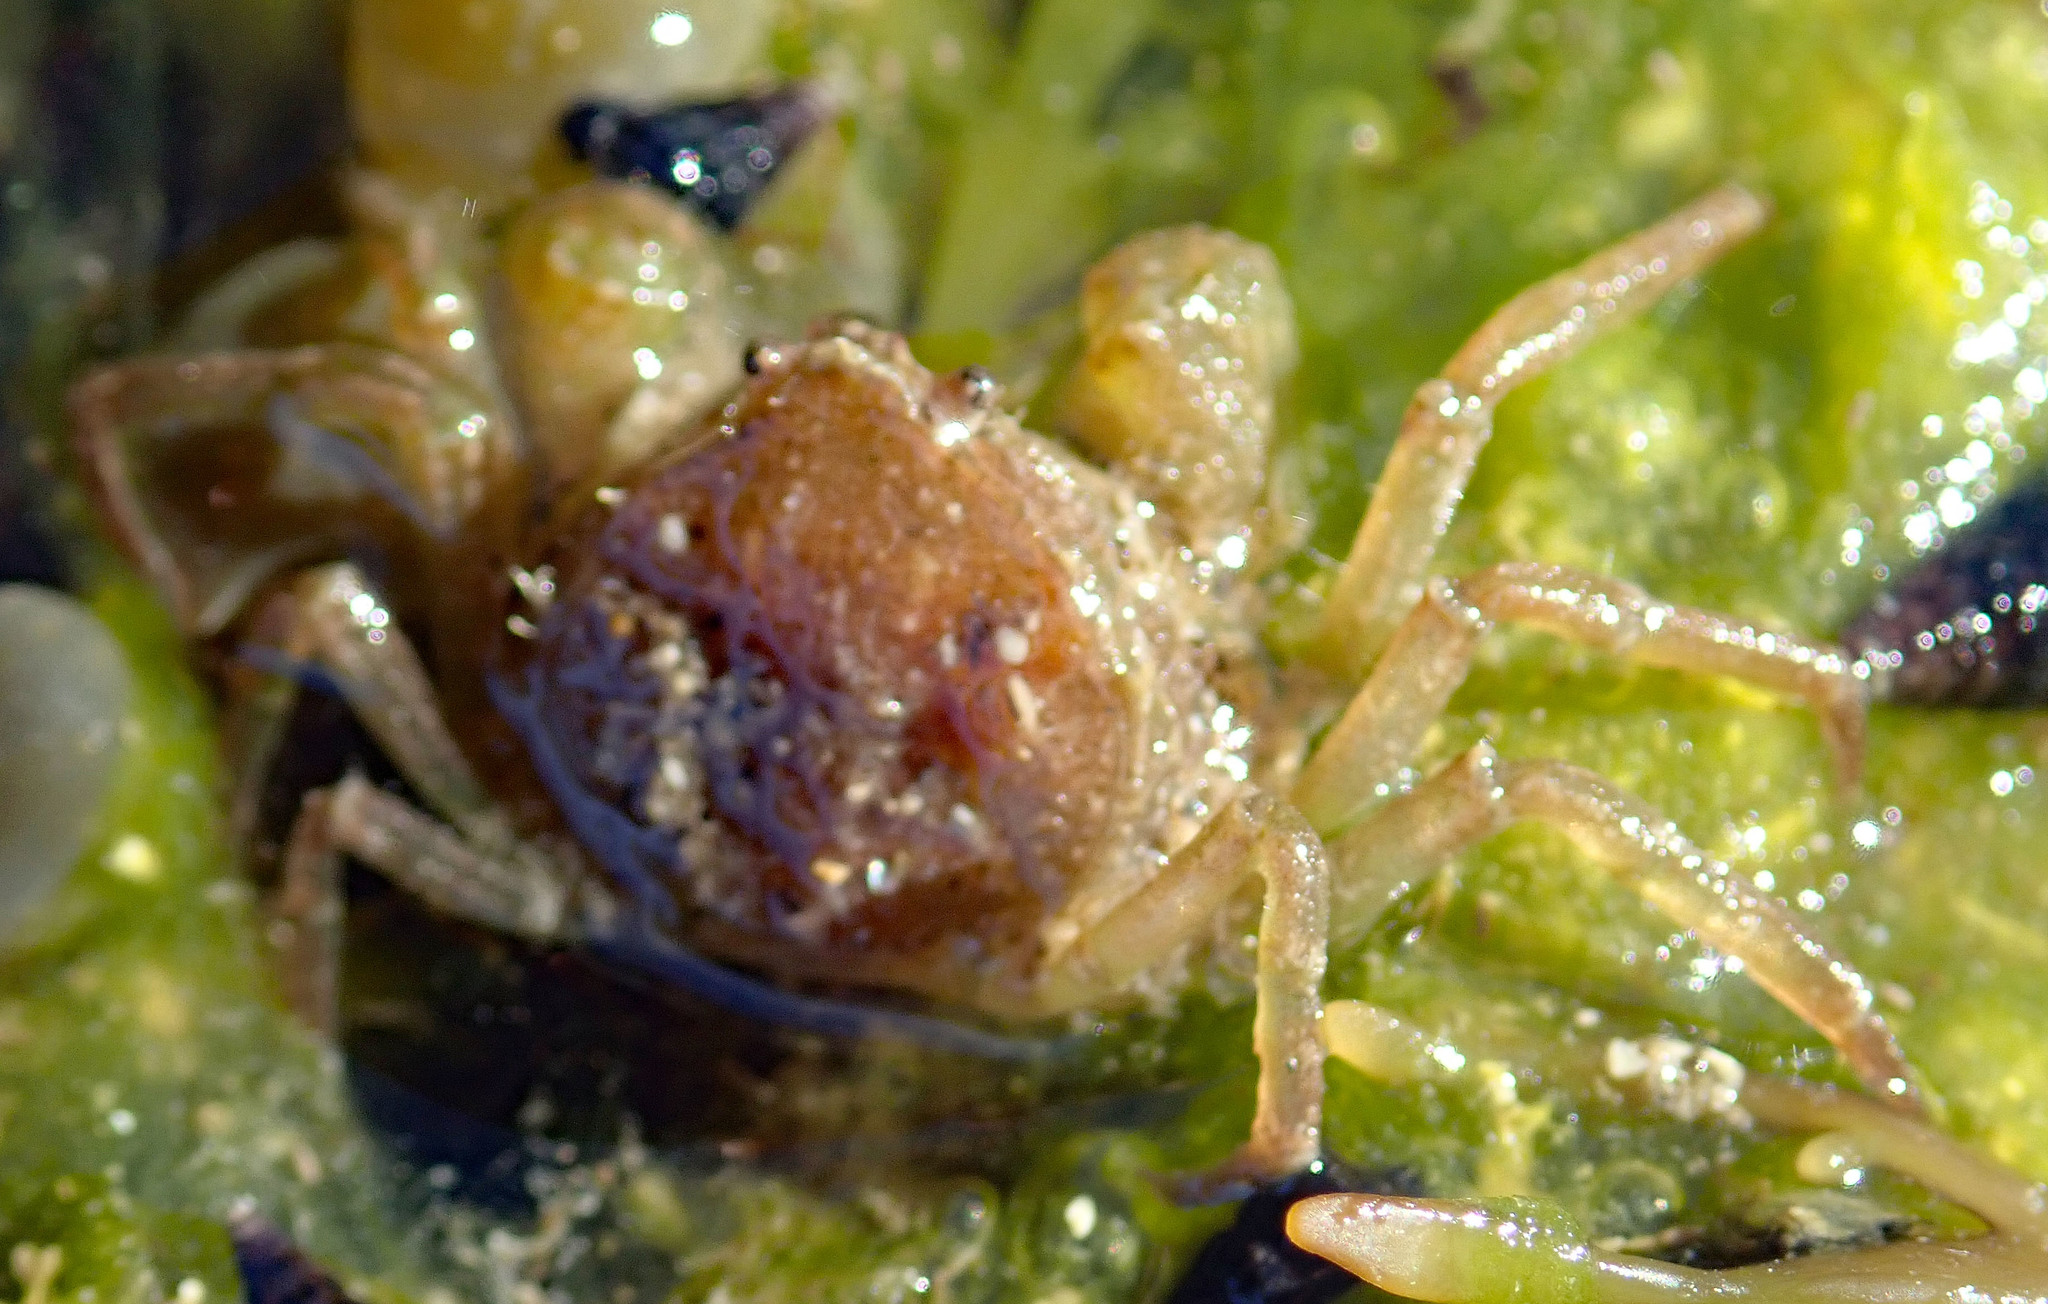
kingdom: Animalia
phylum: Arthropoda
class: Malacostraca
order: Decapoda
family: Hymenosomatidae
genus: Halicarcinus
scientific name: Halicarcinus varius
